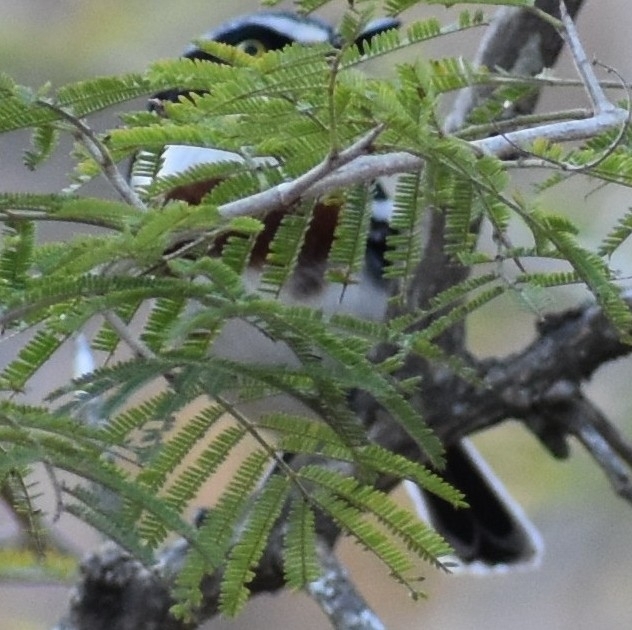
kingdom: Animalia
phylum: Chordata
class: Aves
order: Passeriformes
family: Platysteiridae
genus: Batis
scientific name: Batis molitor
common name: Chinspot batis
